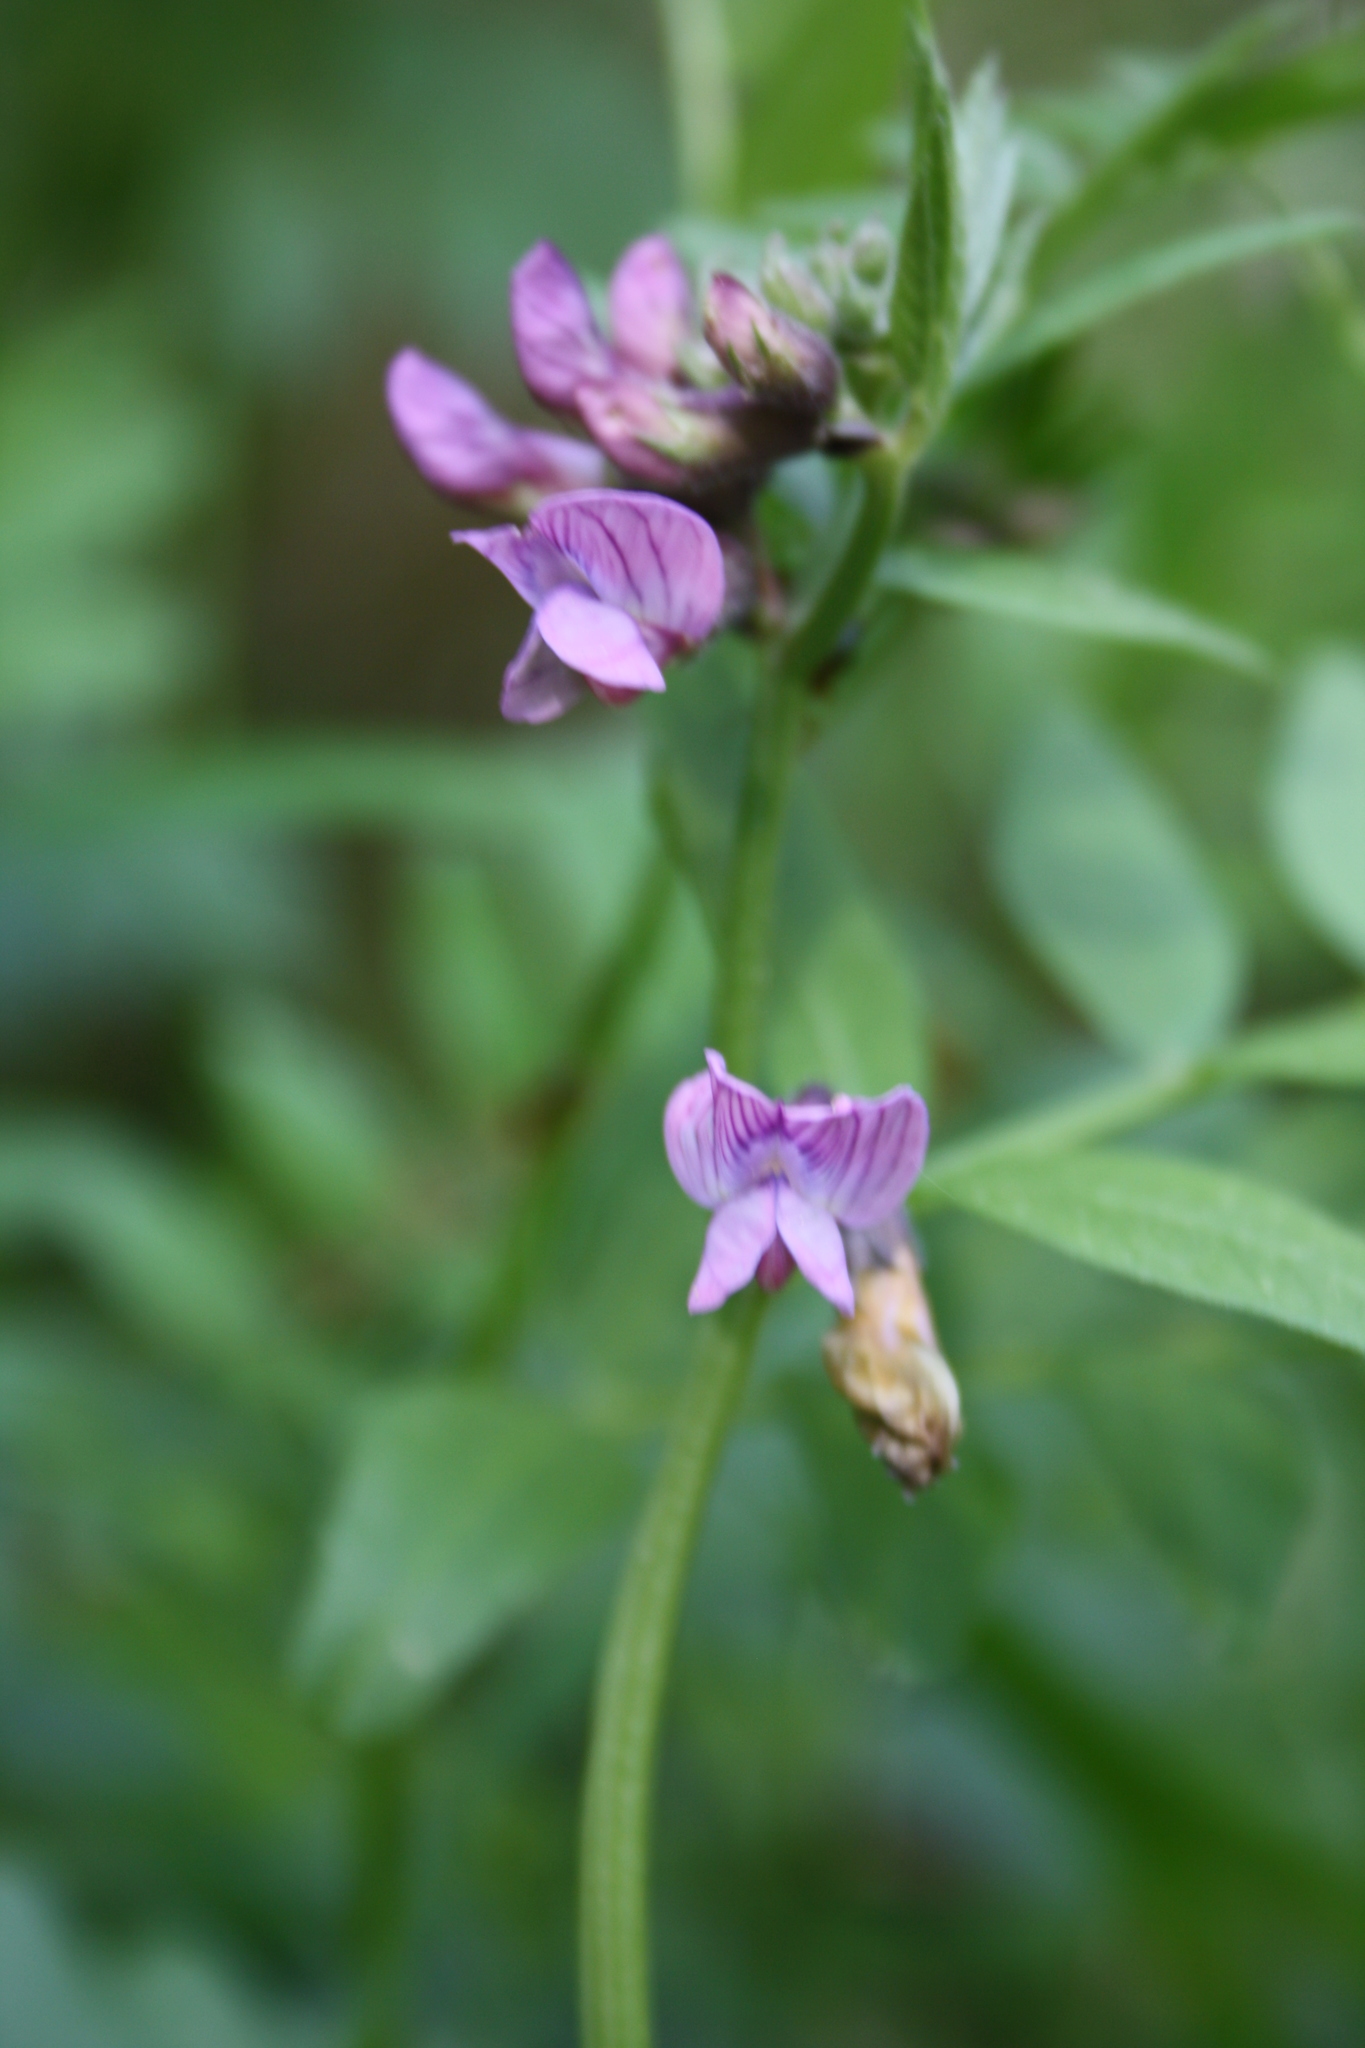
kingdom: Plantae
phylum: Tracheophyta
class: Magnoliopsida
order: Fabales
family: Fabaceae
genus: Vicia
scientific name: Vicia sepium
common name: Bush vetch
